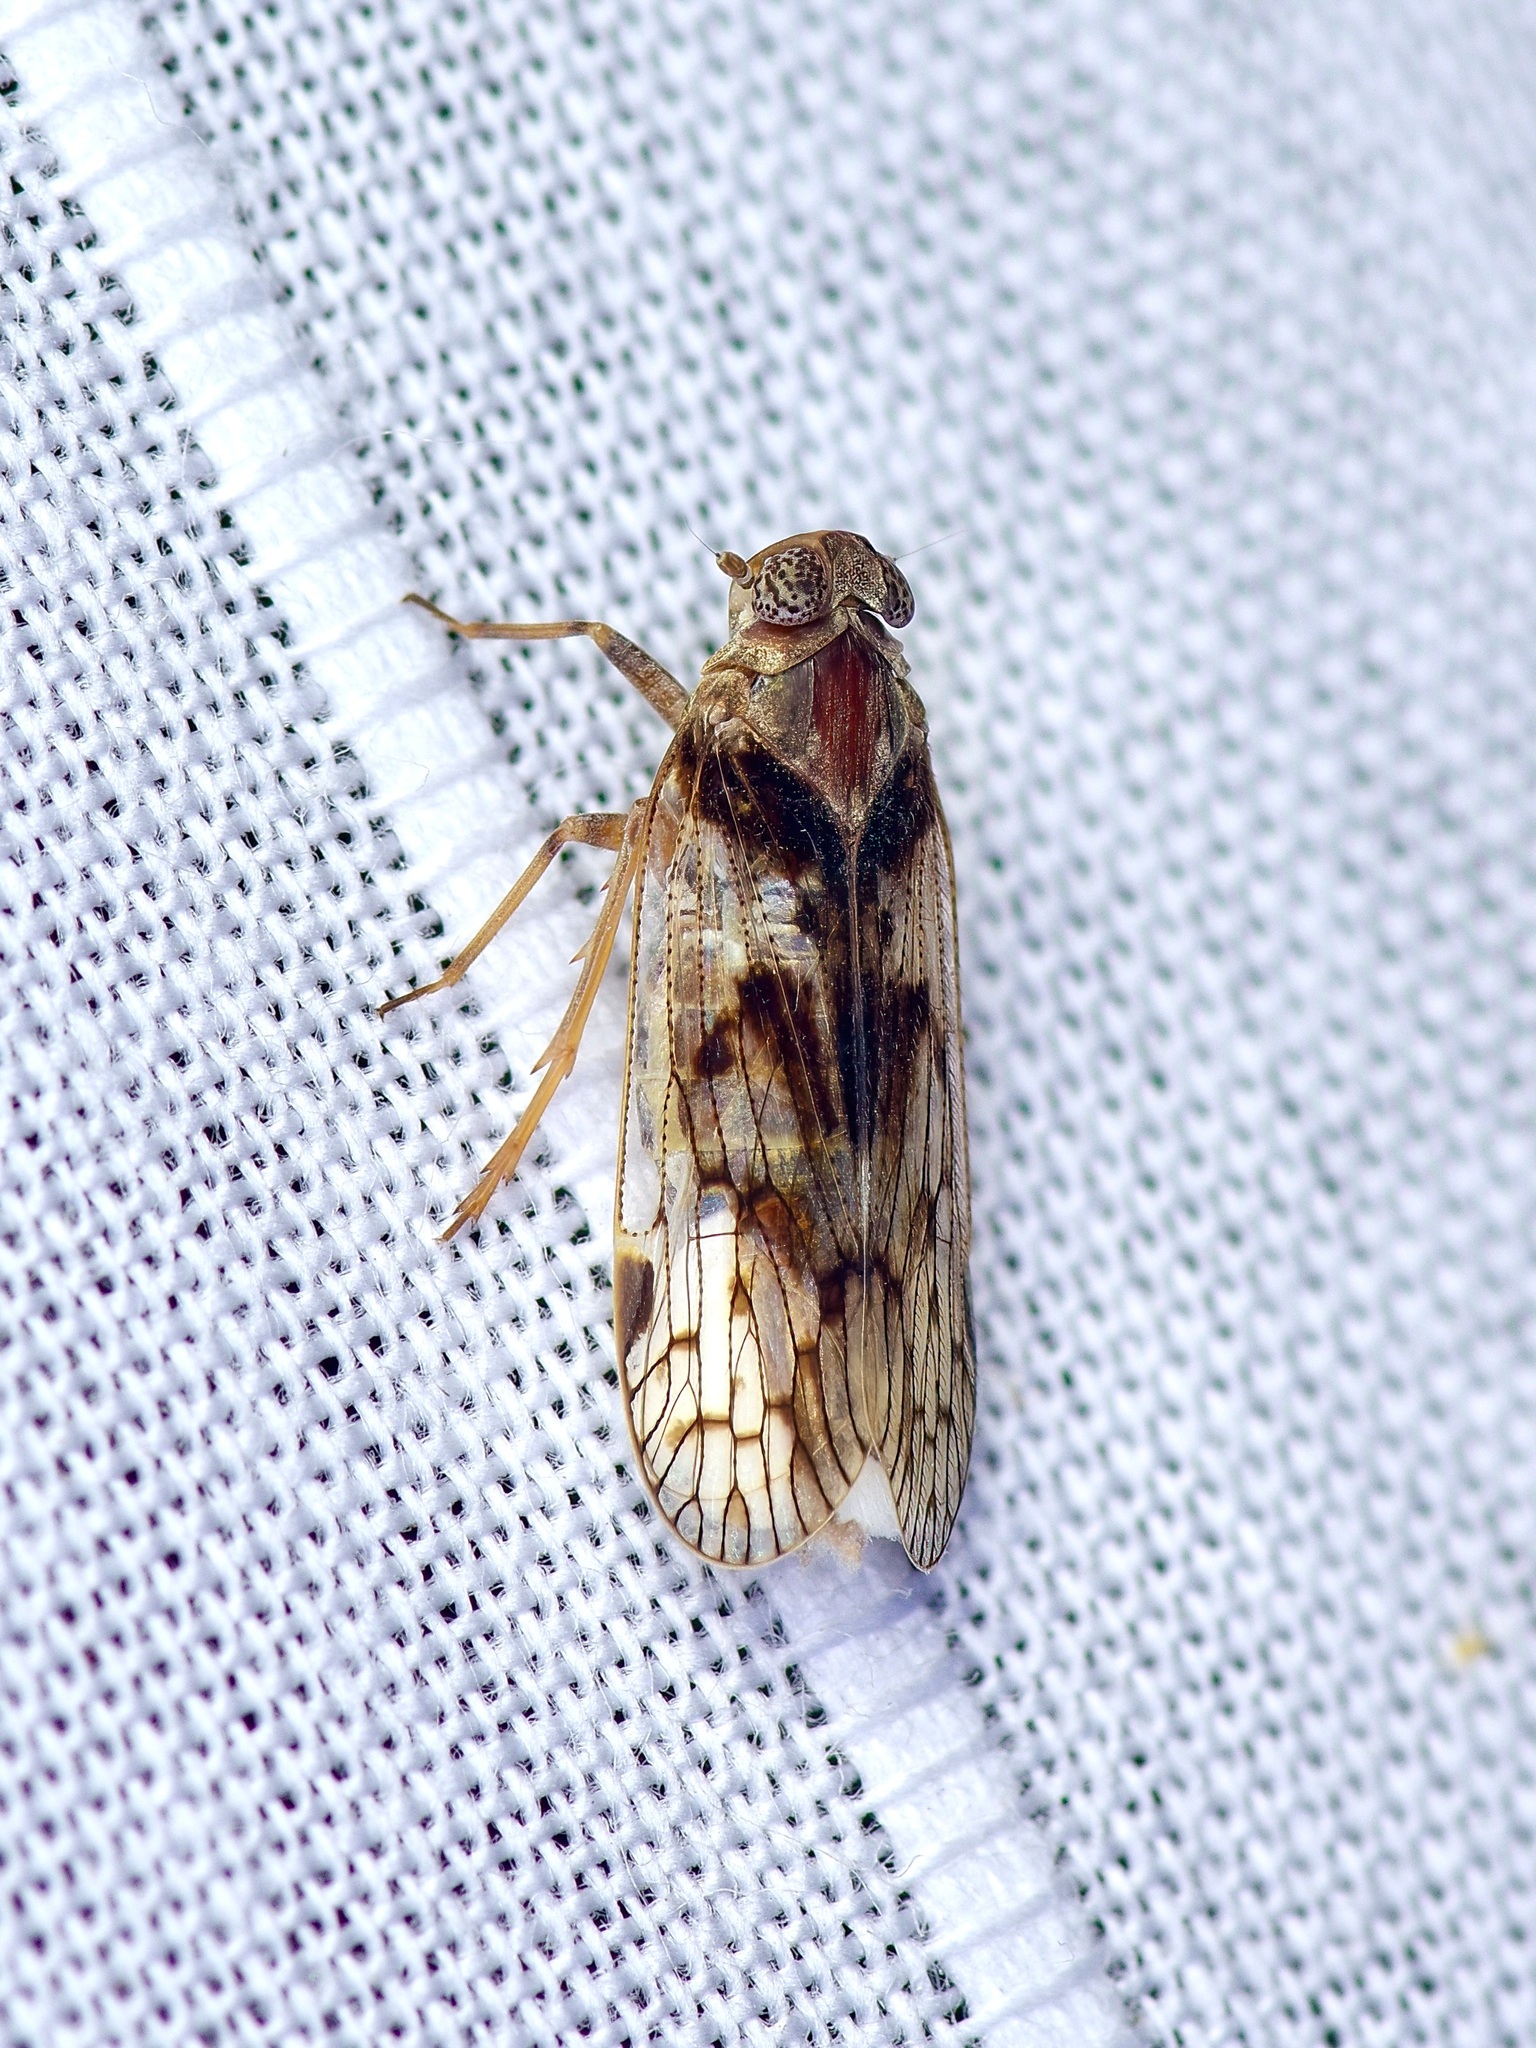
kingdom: Animalia
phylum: Arthropoda
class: Insecta
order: Hemiptera
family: Cixiidae
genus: Melanoliarus
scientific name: Melanoliarus aridus
